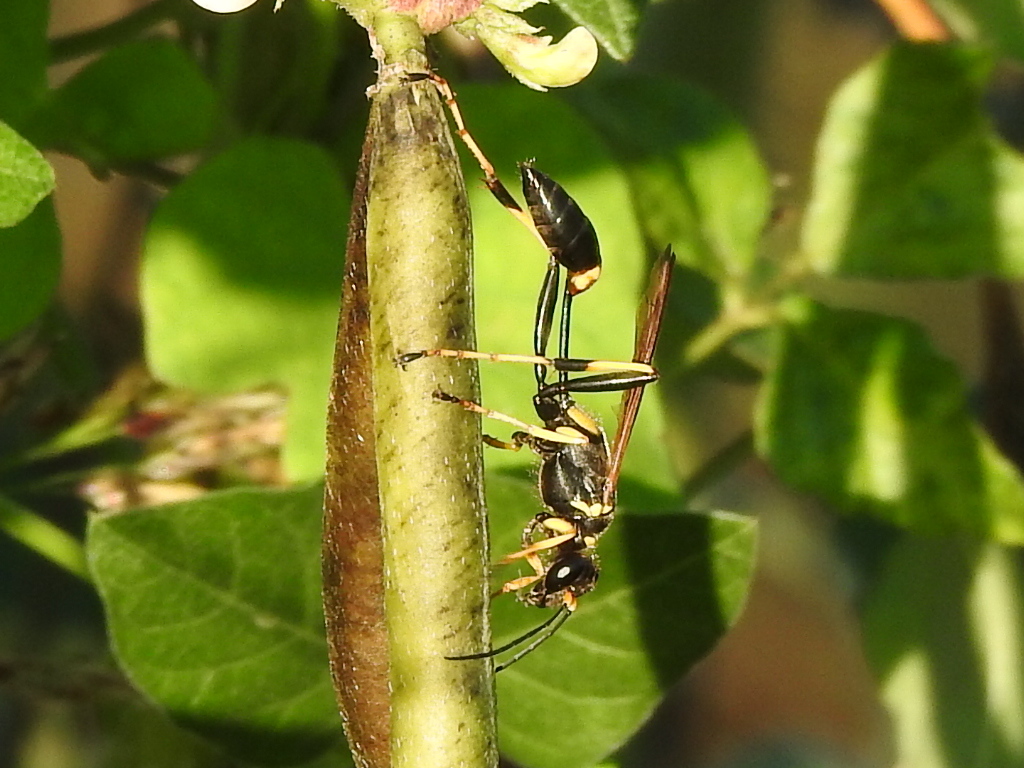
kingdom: Animalia
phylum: Arthropoda
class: Insecta
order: Hymenoptera
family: Sphecidae
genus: Sceliphron
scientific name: Sceliphron caementarium
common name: Mud dauber
